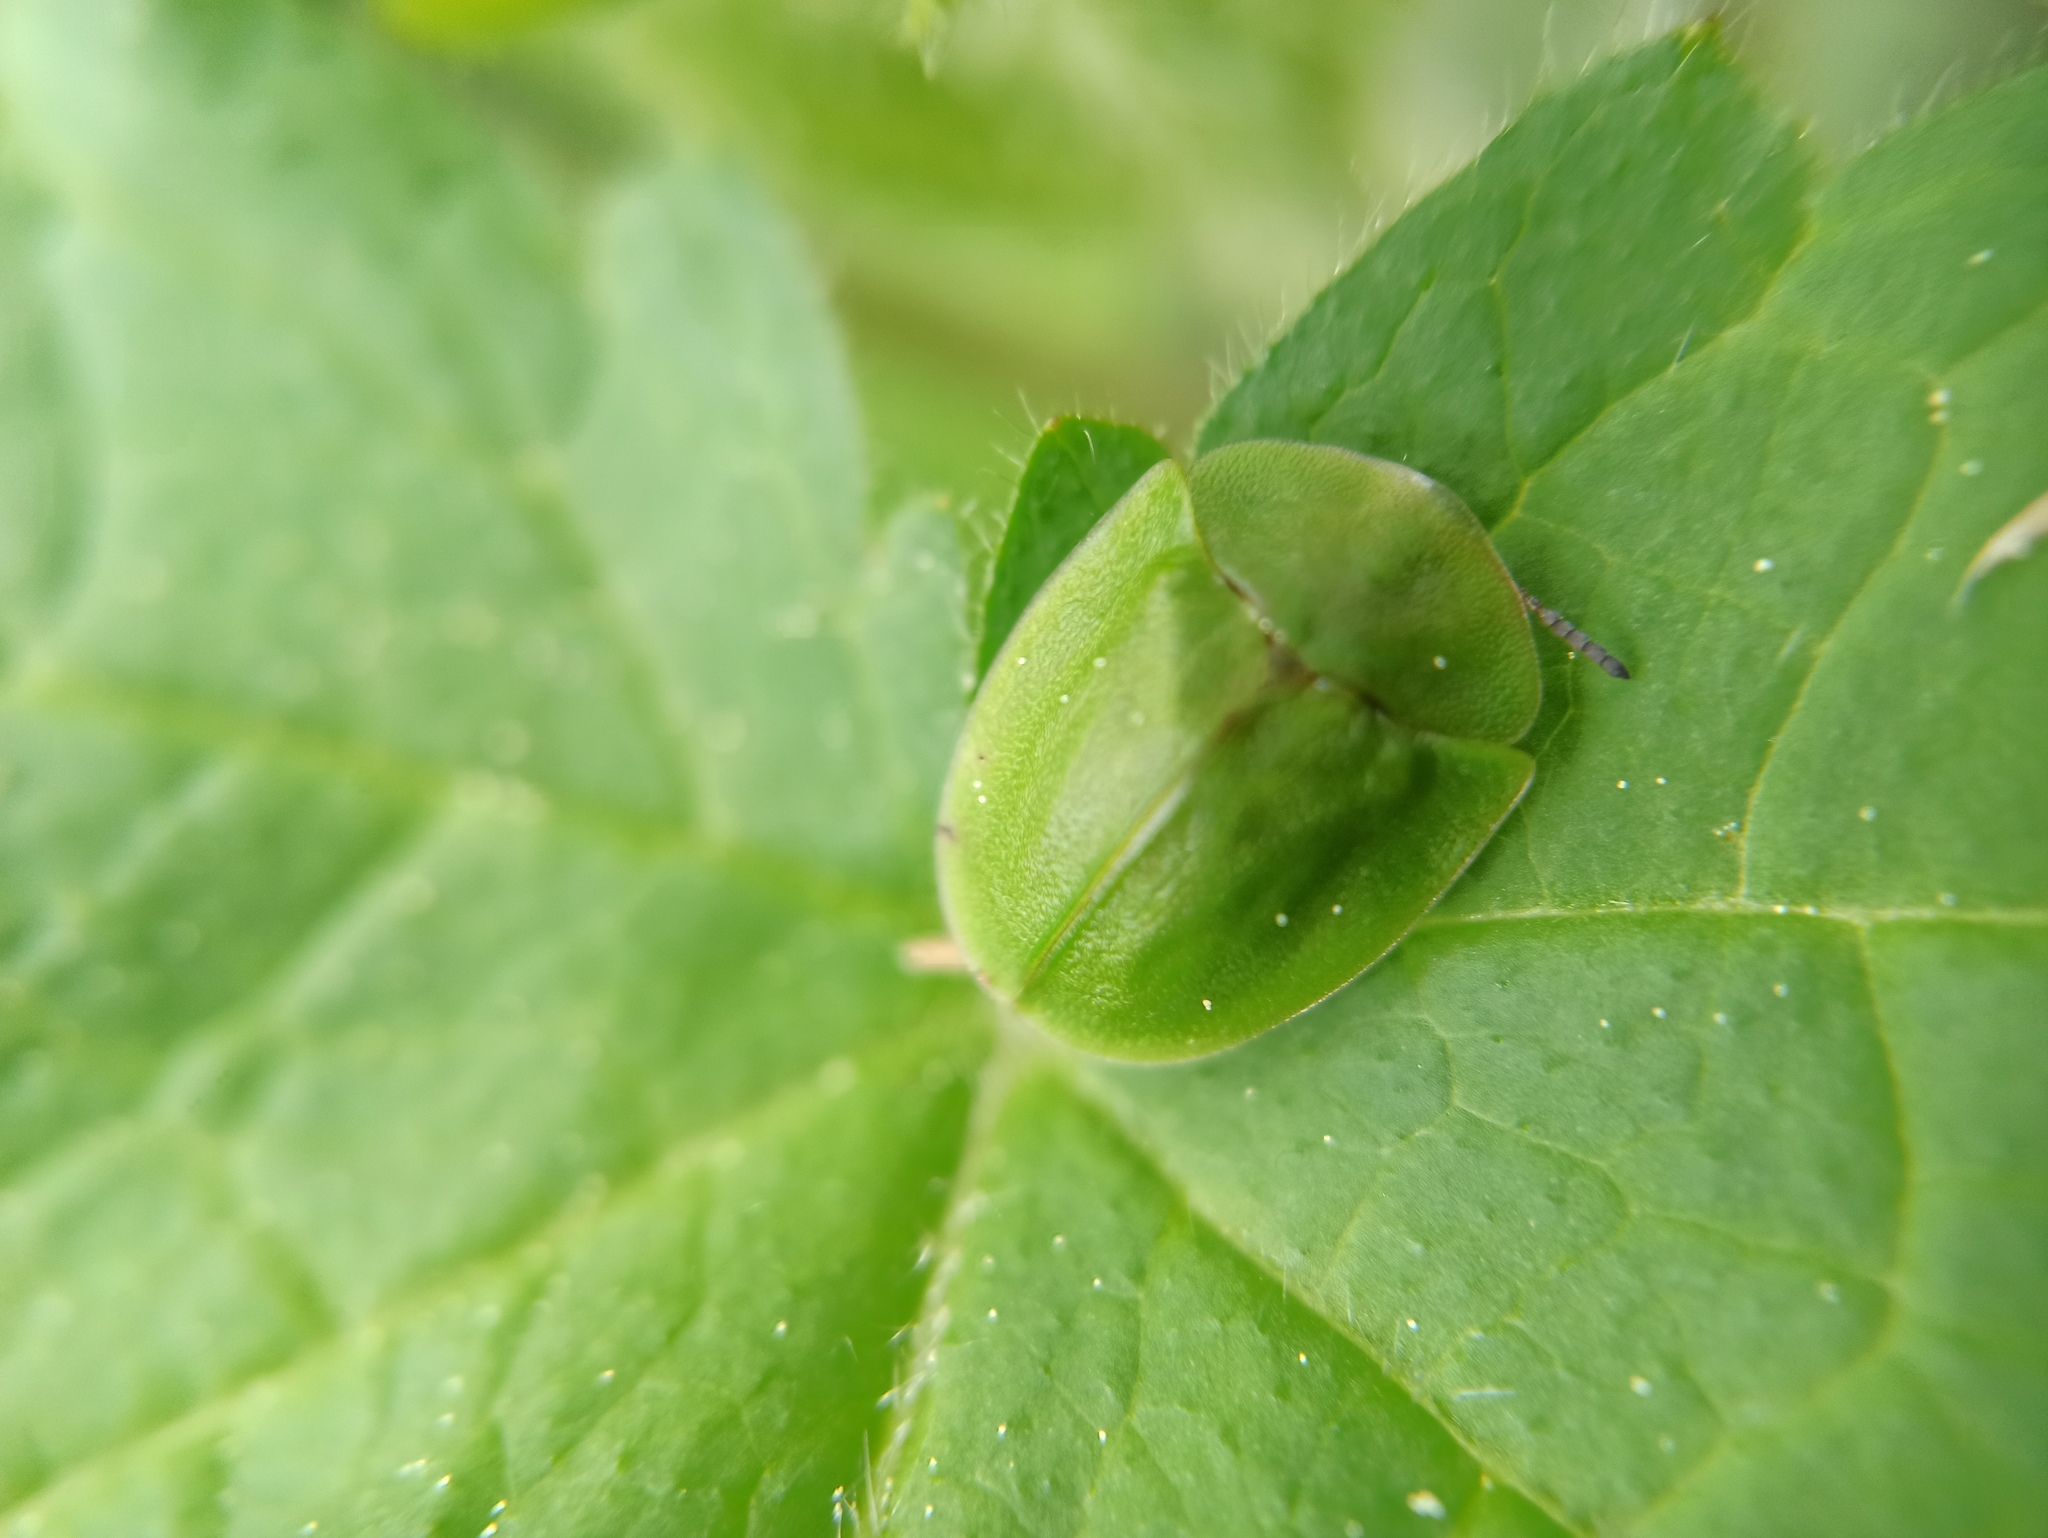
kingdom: Animalia
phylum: Arthropoda
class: Insecta
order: Coleoptera
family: Chrysomelidae
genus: Cassida
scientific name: Cassida viridis
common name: Green tortoise beetle
